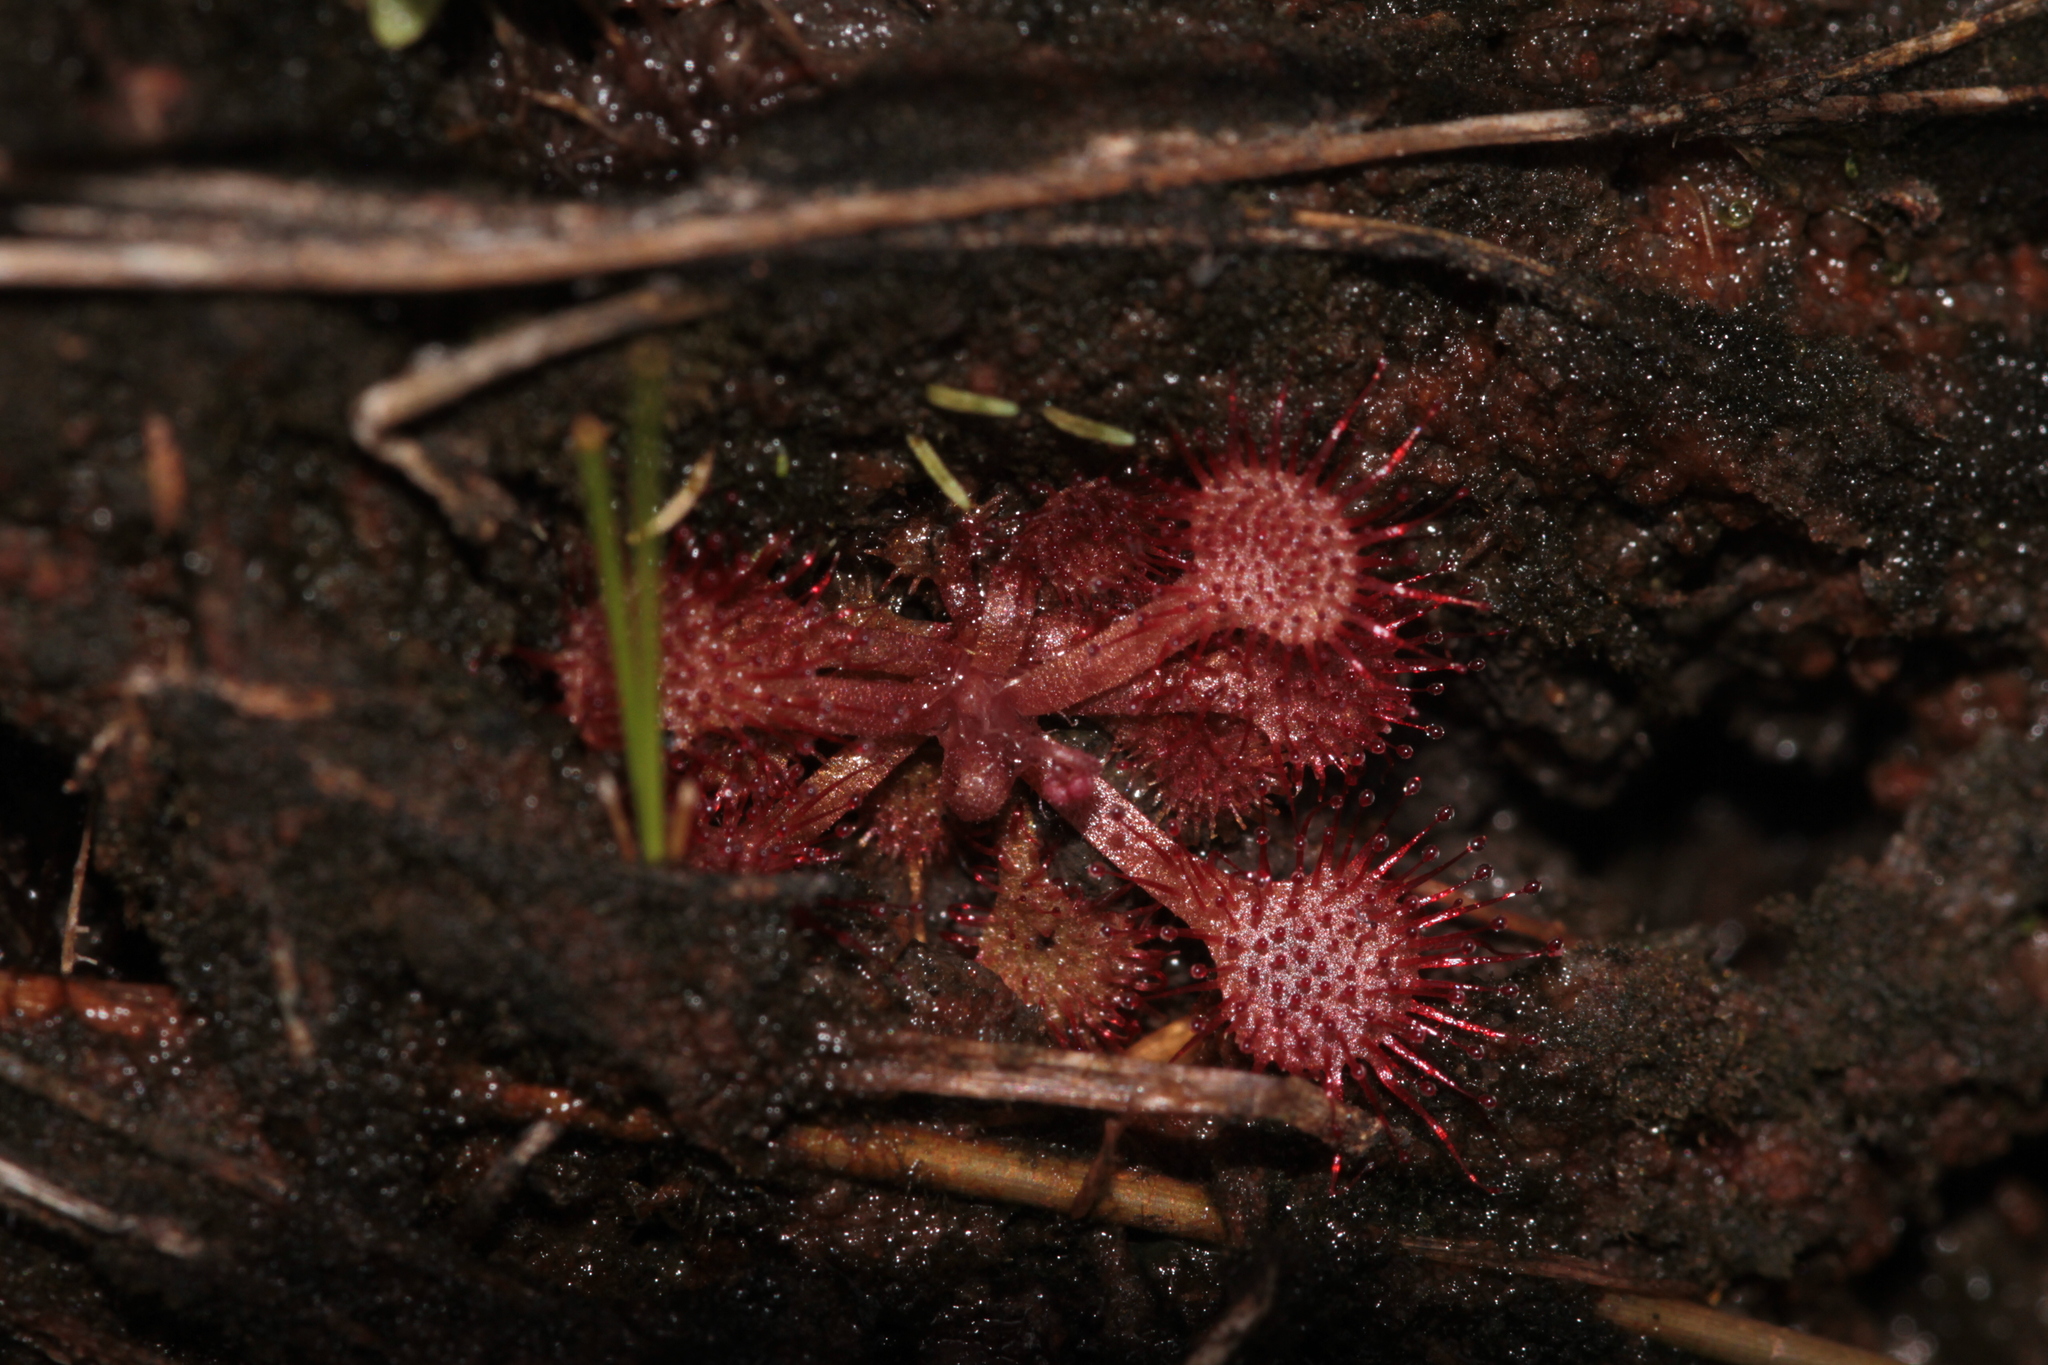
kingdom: Plantae
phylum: Tracheophyta
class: Magnoliopsida
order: Caryophyllales
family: Droseraceae
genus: Drosera
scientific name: Drosera capillaris
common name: Pink sundew
